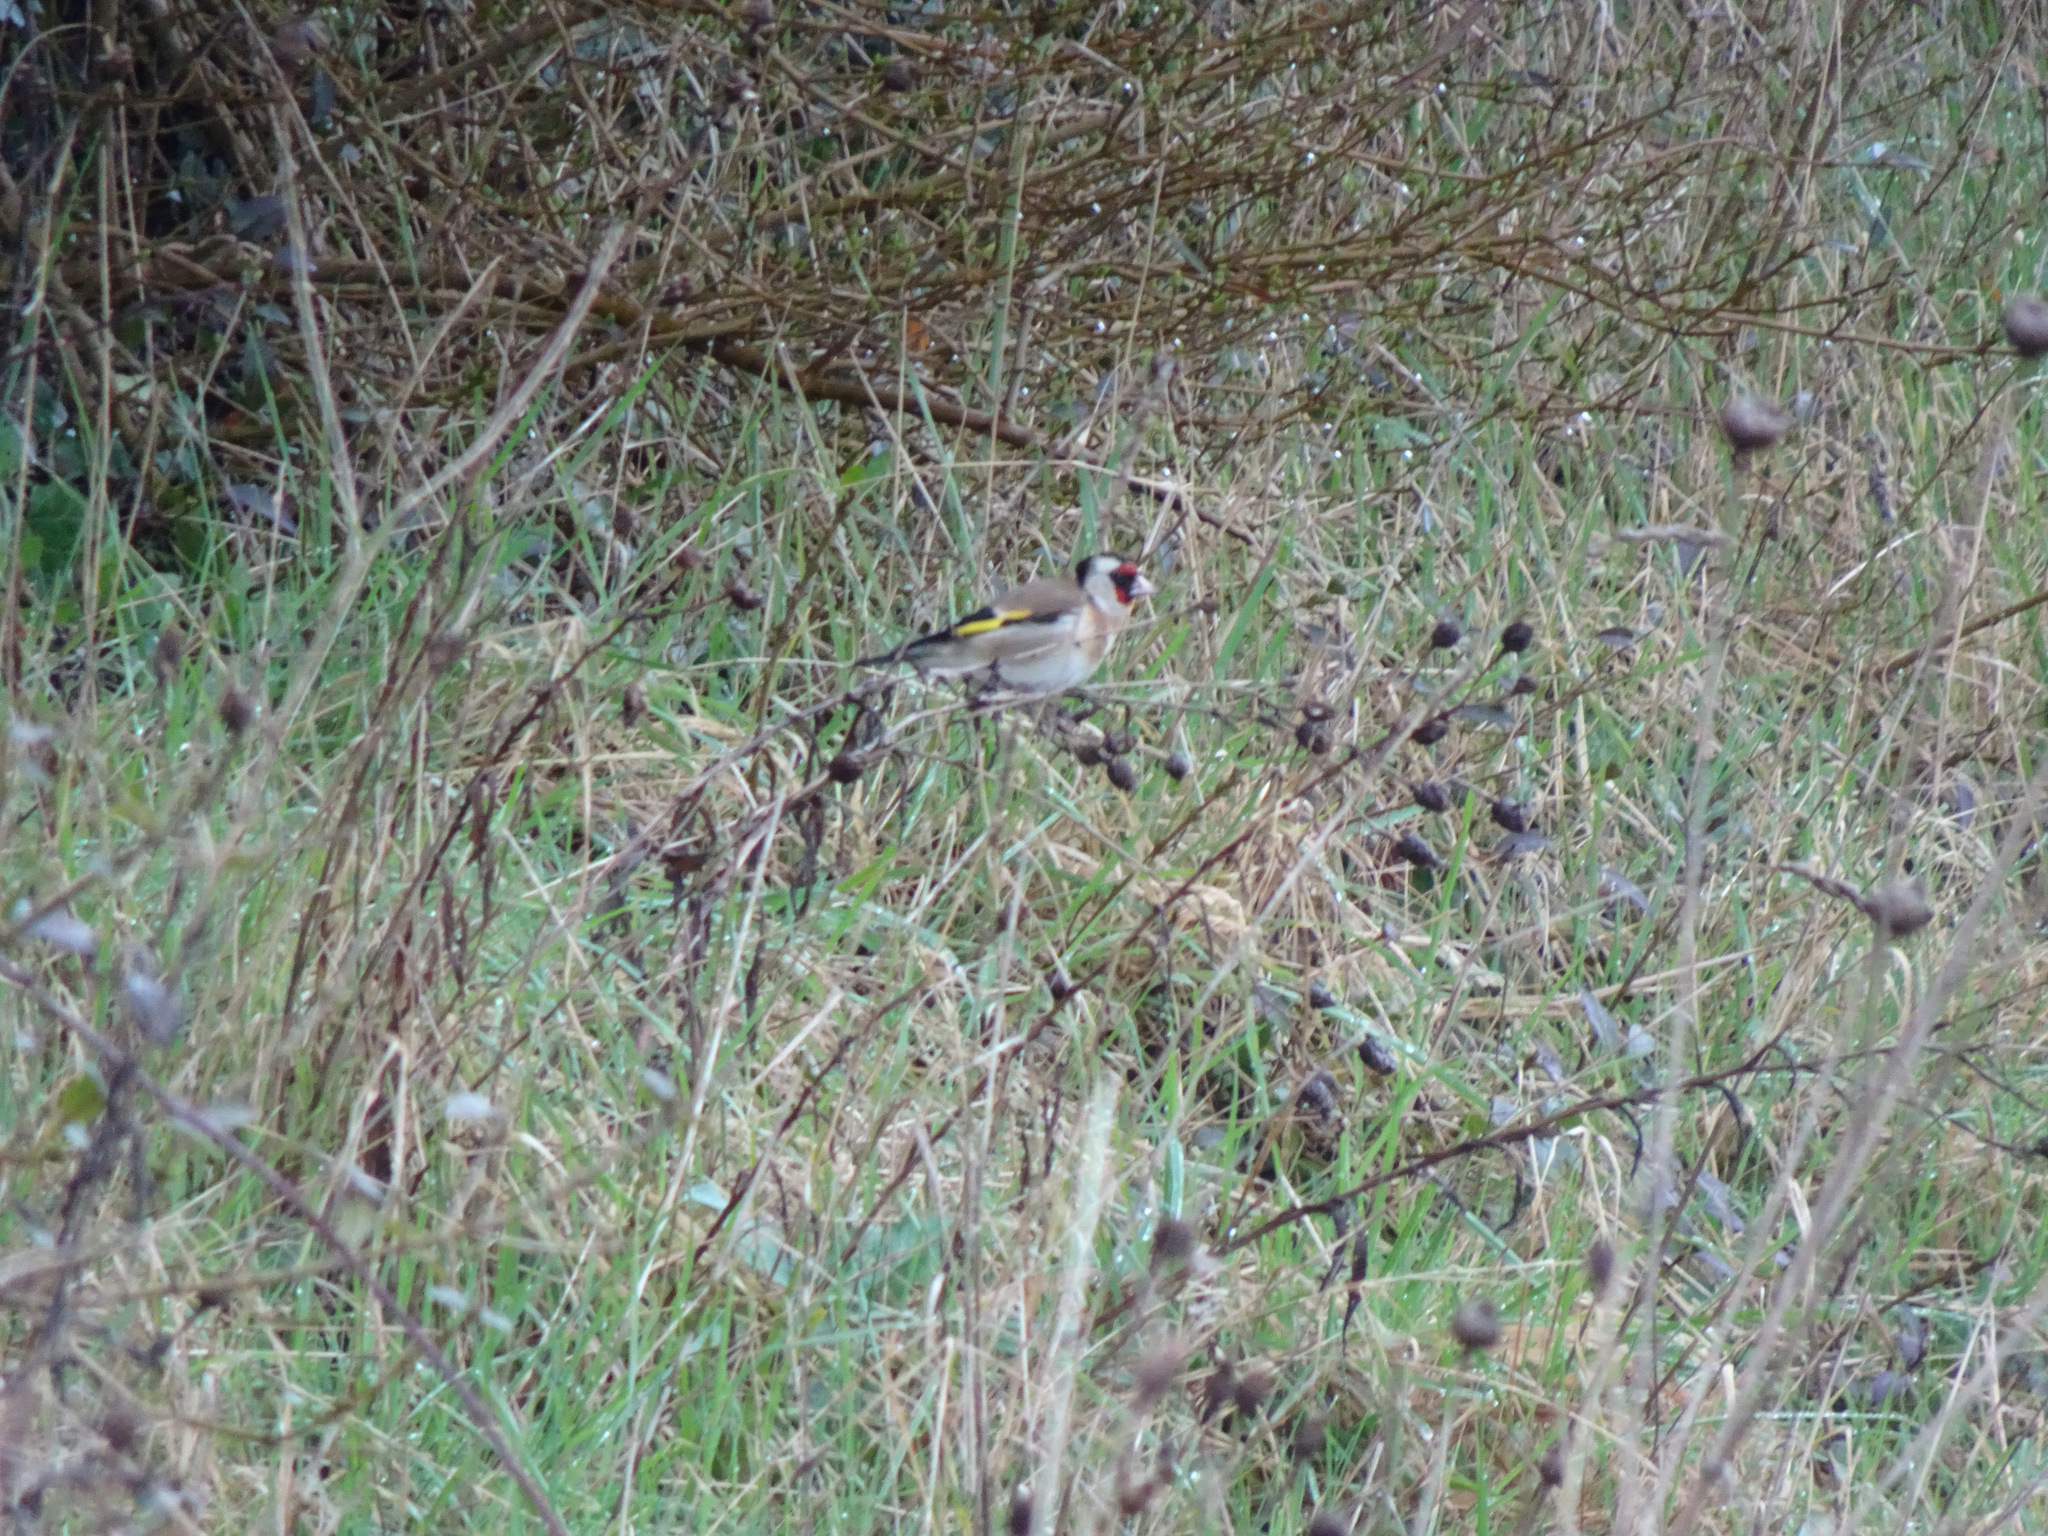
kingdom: Animalia
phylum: Chordata
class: Aves
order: Passeriformes
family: Fringillidae
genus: Carduelis
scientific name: Carduelis carduelis
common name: European goldfinch
